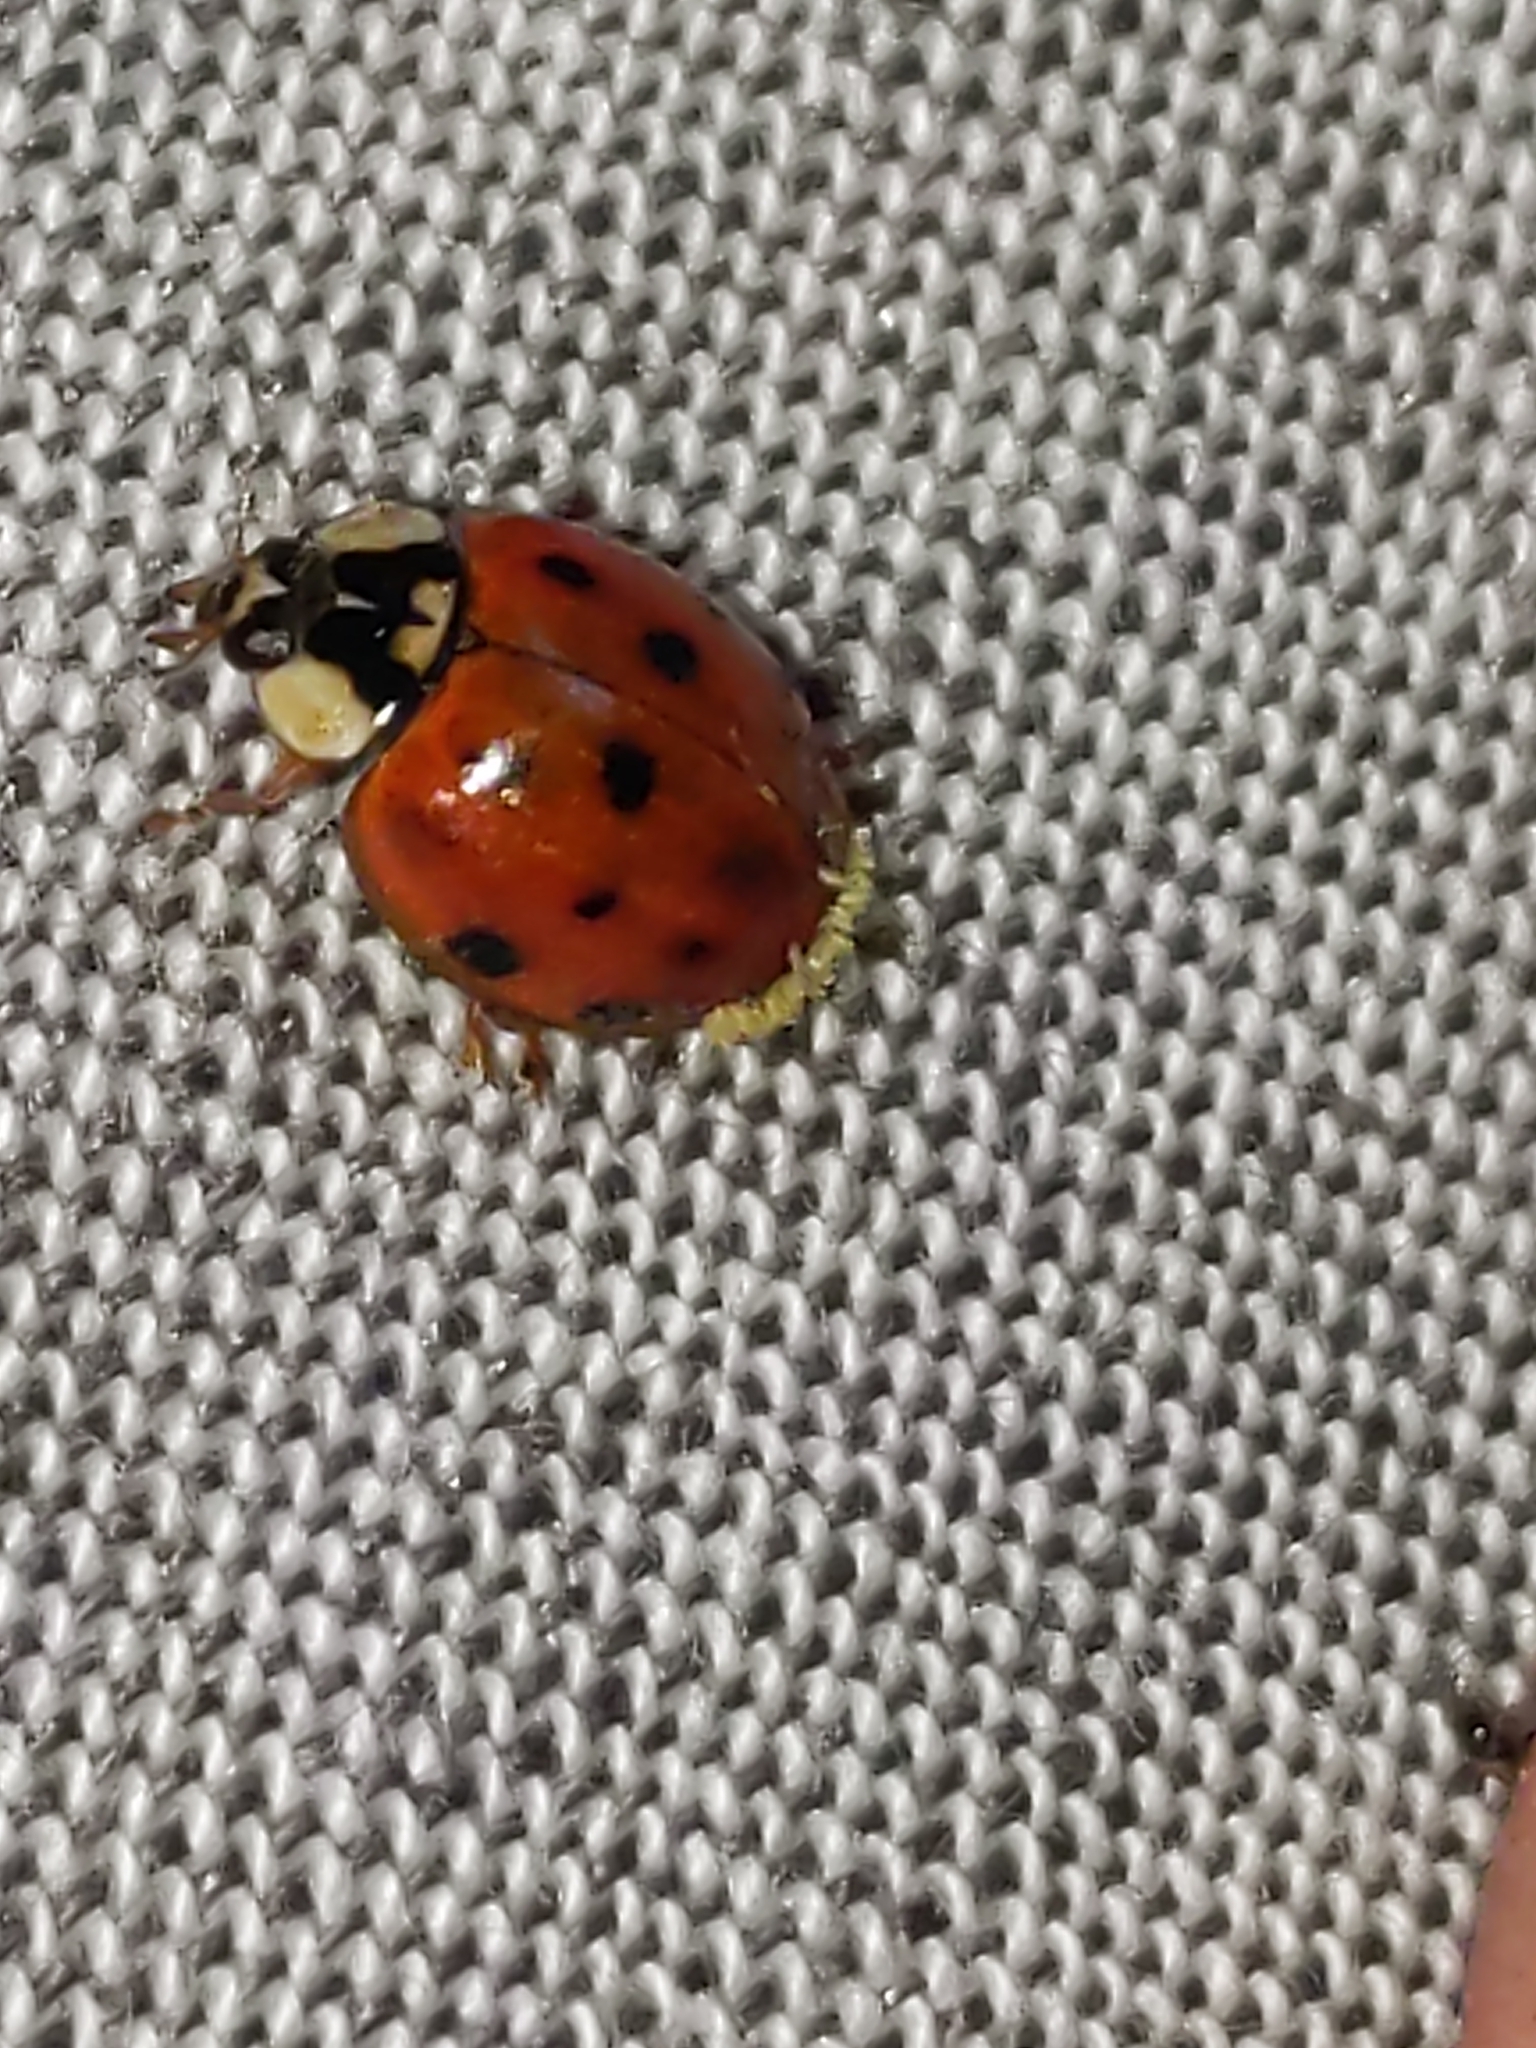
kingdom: Animalia
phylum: Arthropoda
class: Insecta
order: Coleoptera
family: Coccinellidae
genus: Harmonia
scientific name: Harmonia axyridis
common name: Harlequin ladybird
